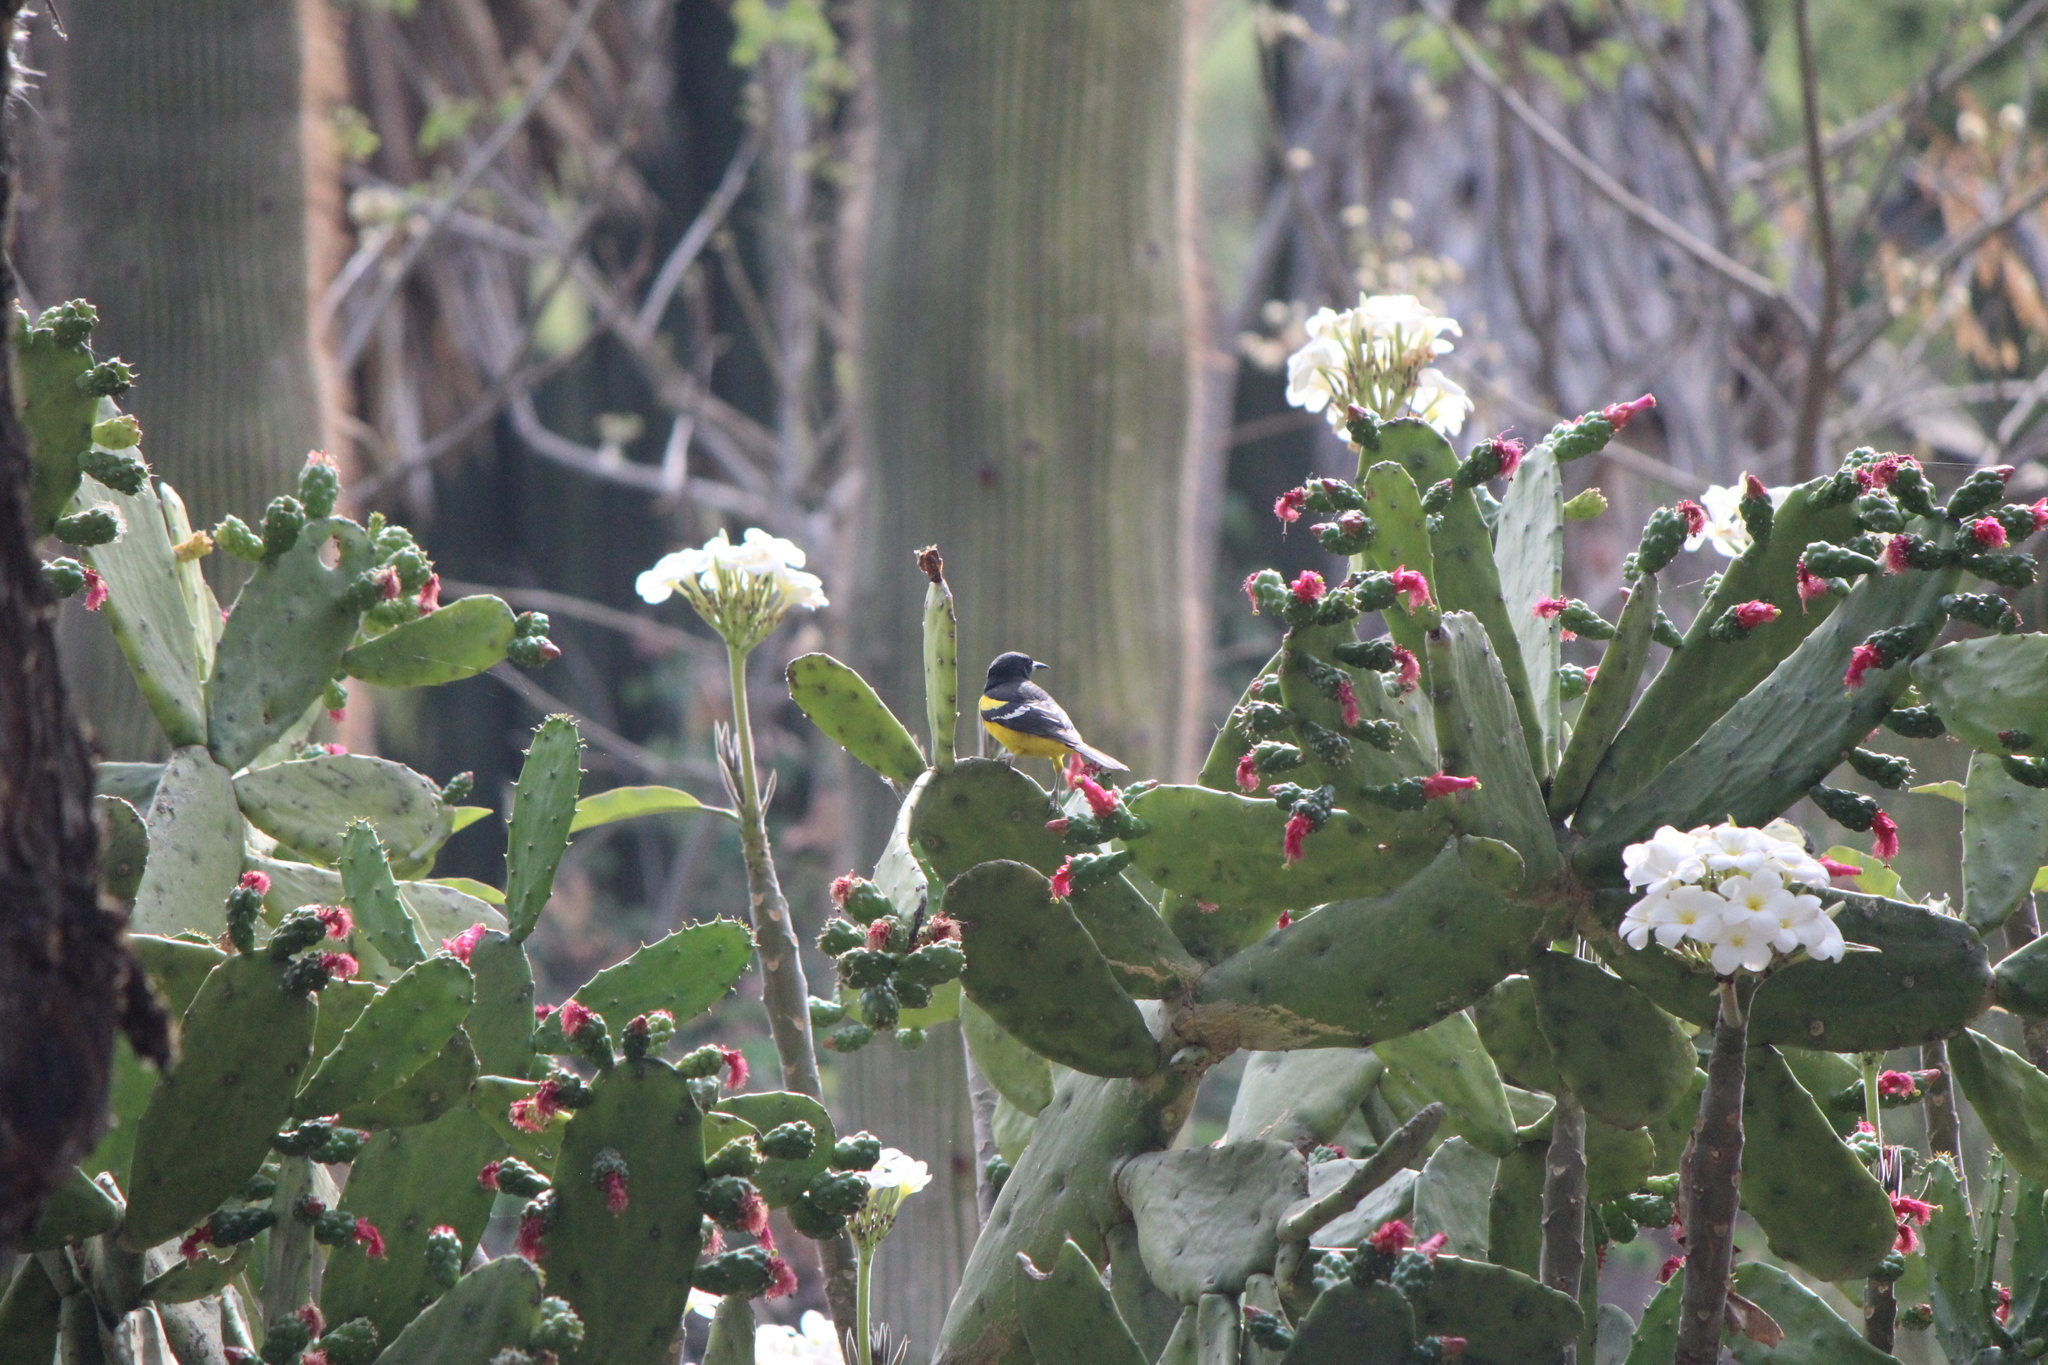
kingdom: Animalia
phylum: Chordata
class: Aves
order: Passeriformes
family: Icteridae
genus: Icterus
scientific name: Icterus parisorum
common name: Scott's oriole
